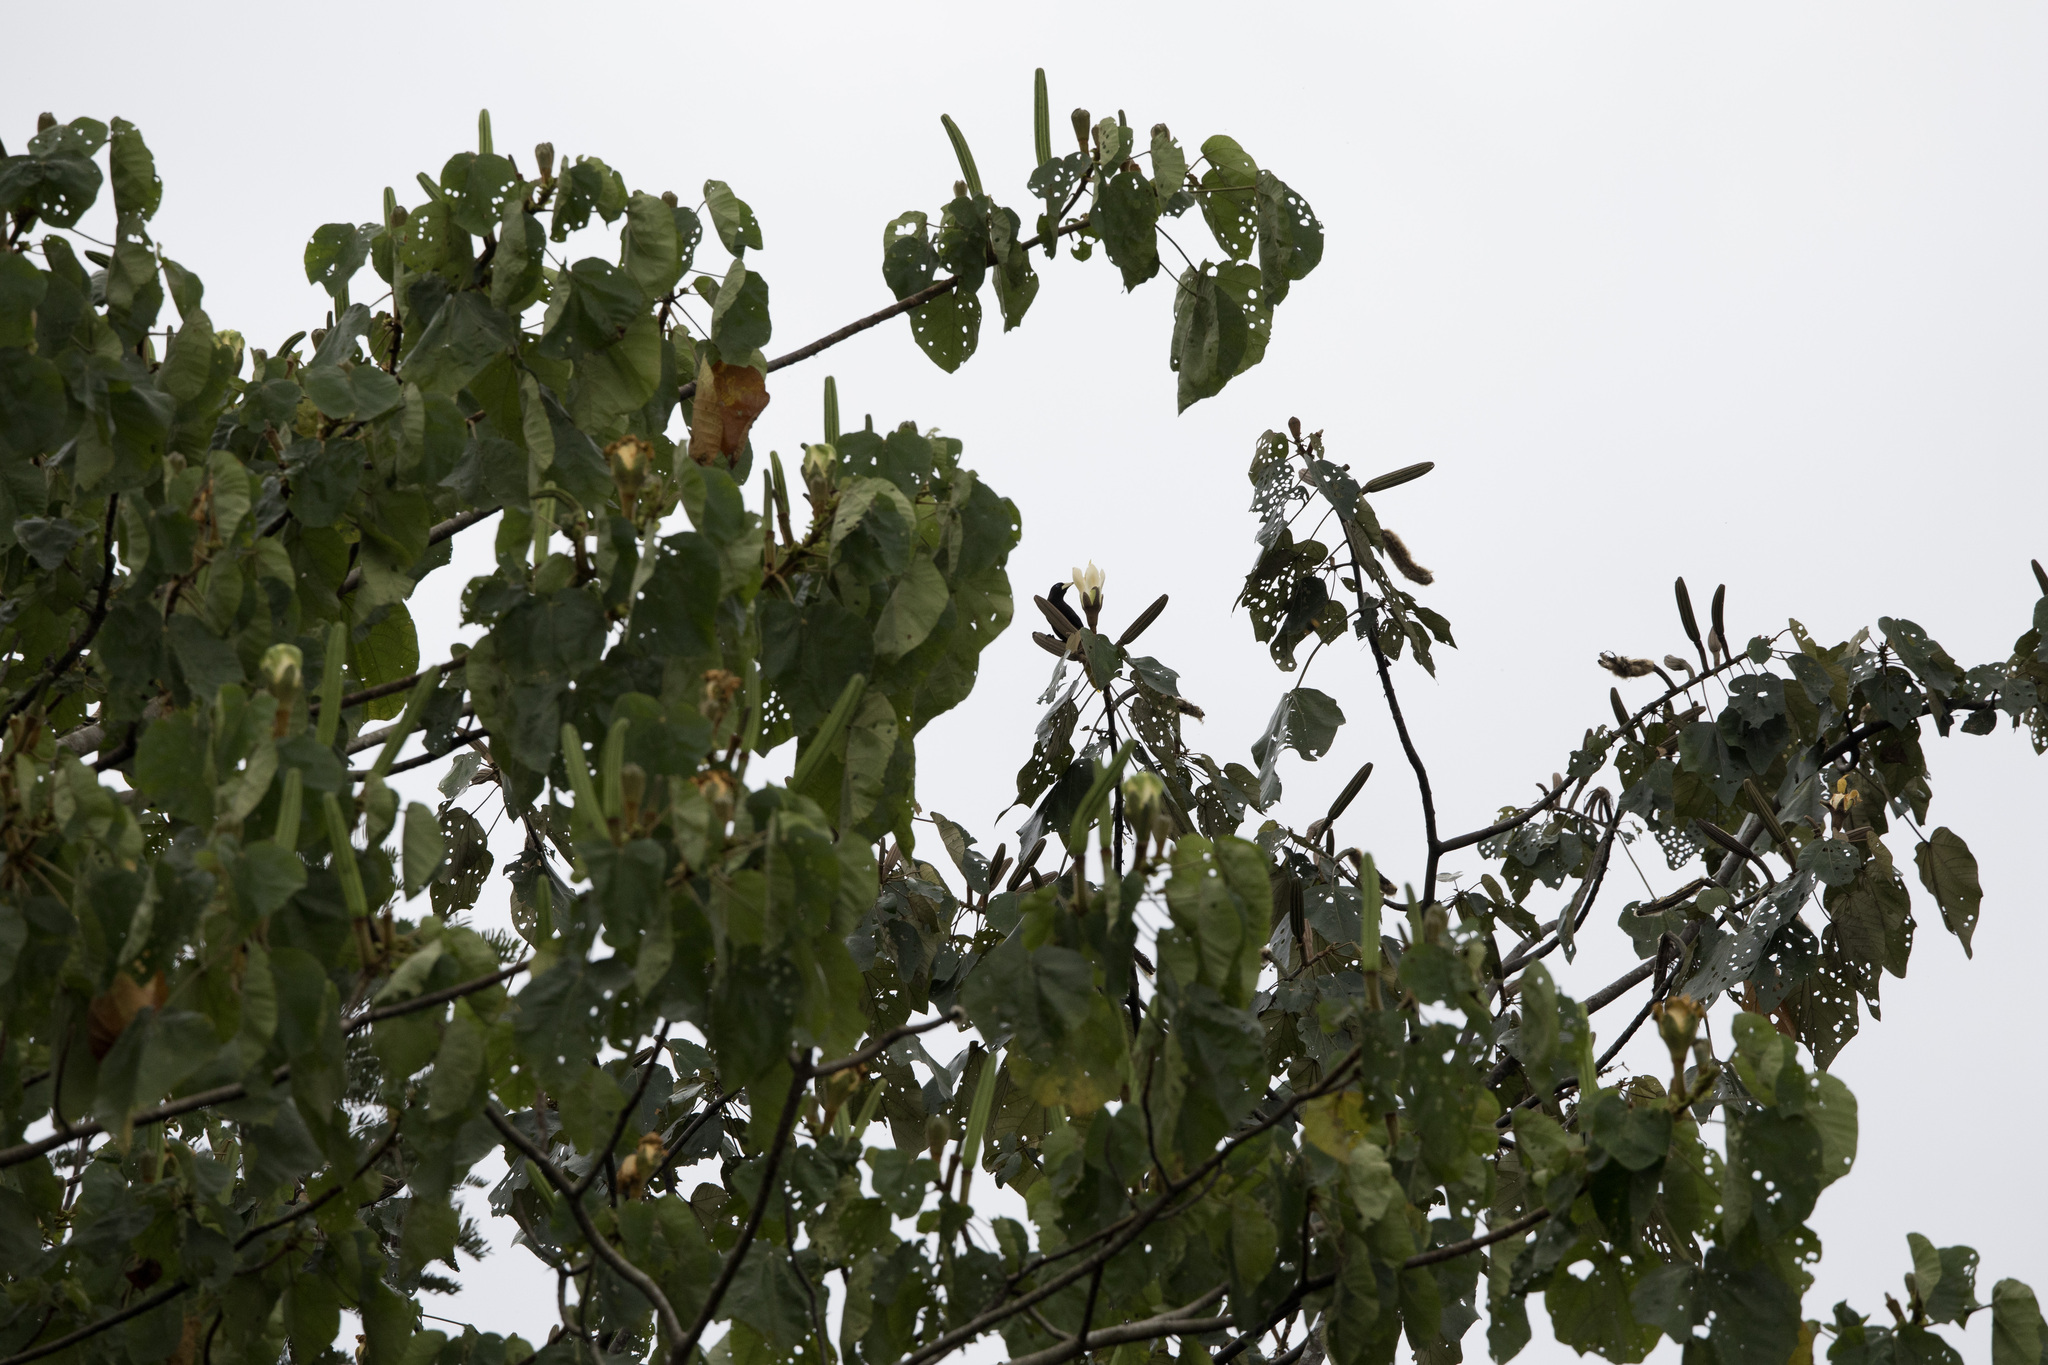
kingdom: Animalia
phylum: Chordata
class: Aves
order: Passeriformes
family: Icteridae
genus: Psarocolius
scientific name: Psarocolius decumanus
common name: Crested oropendola
